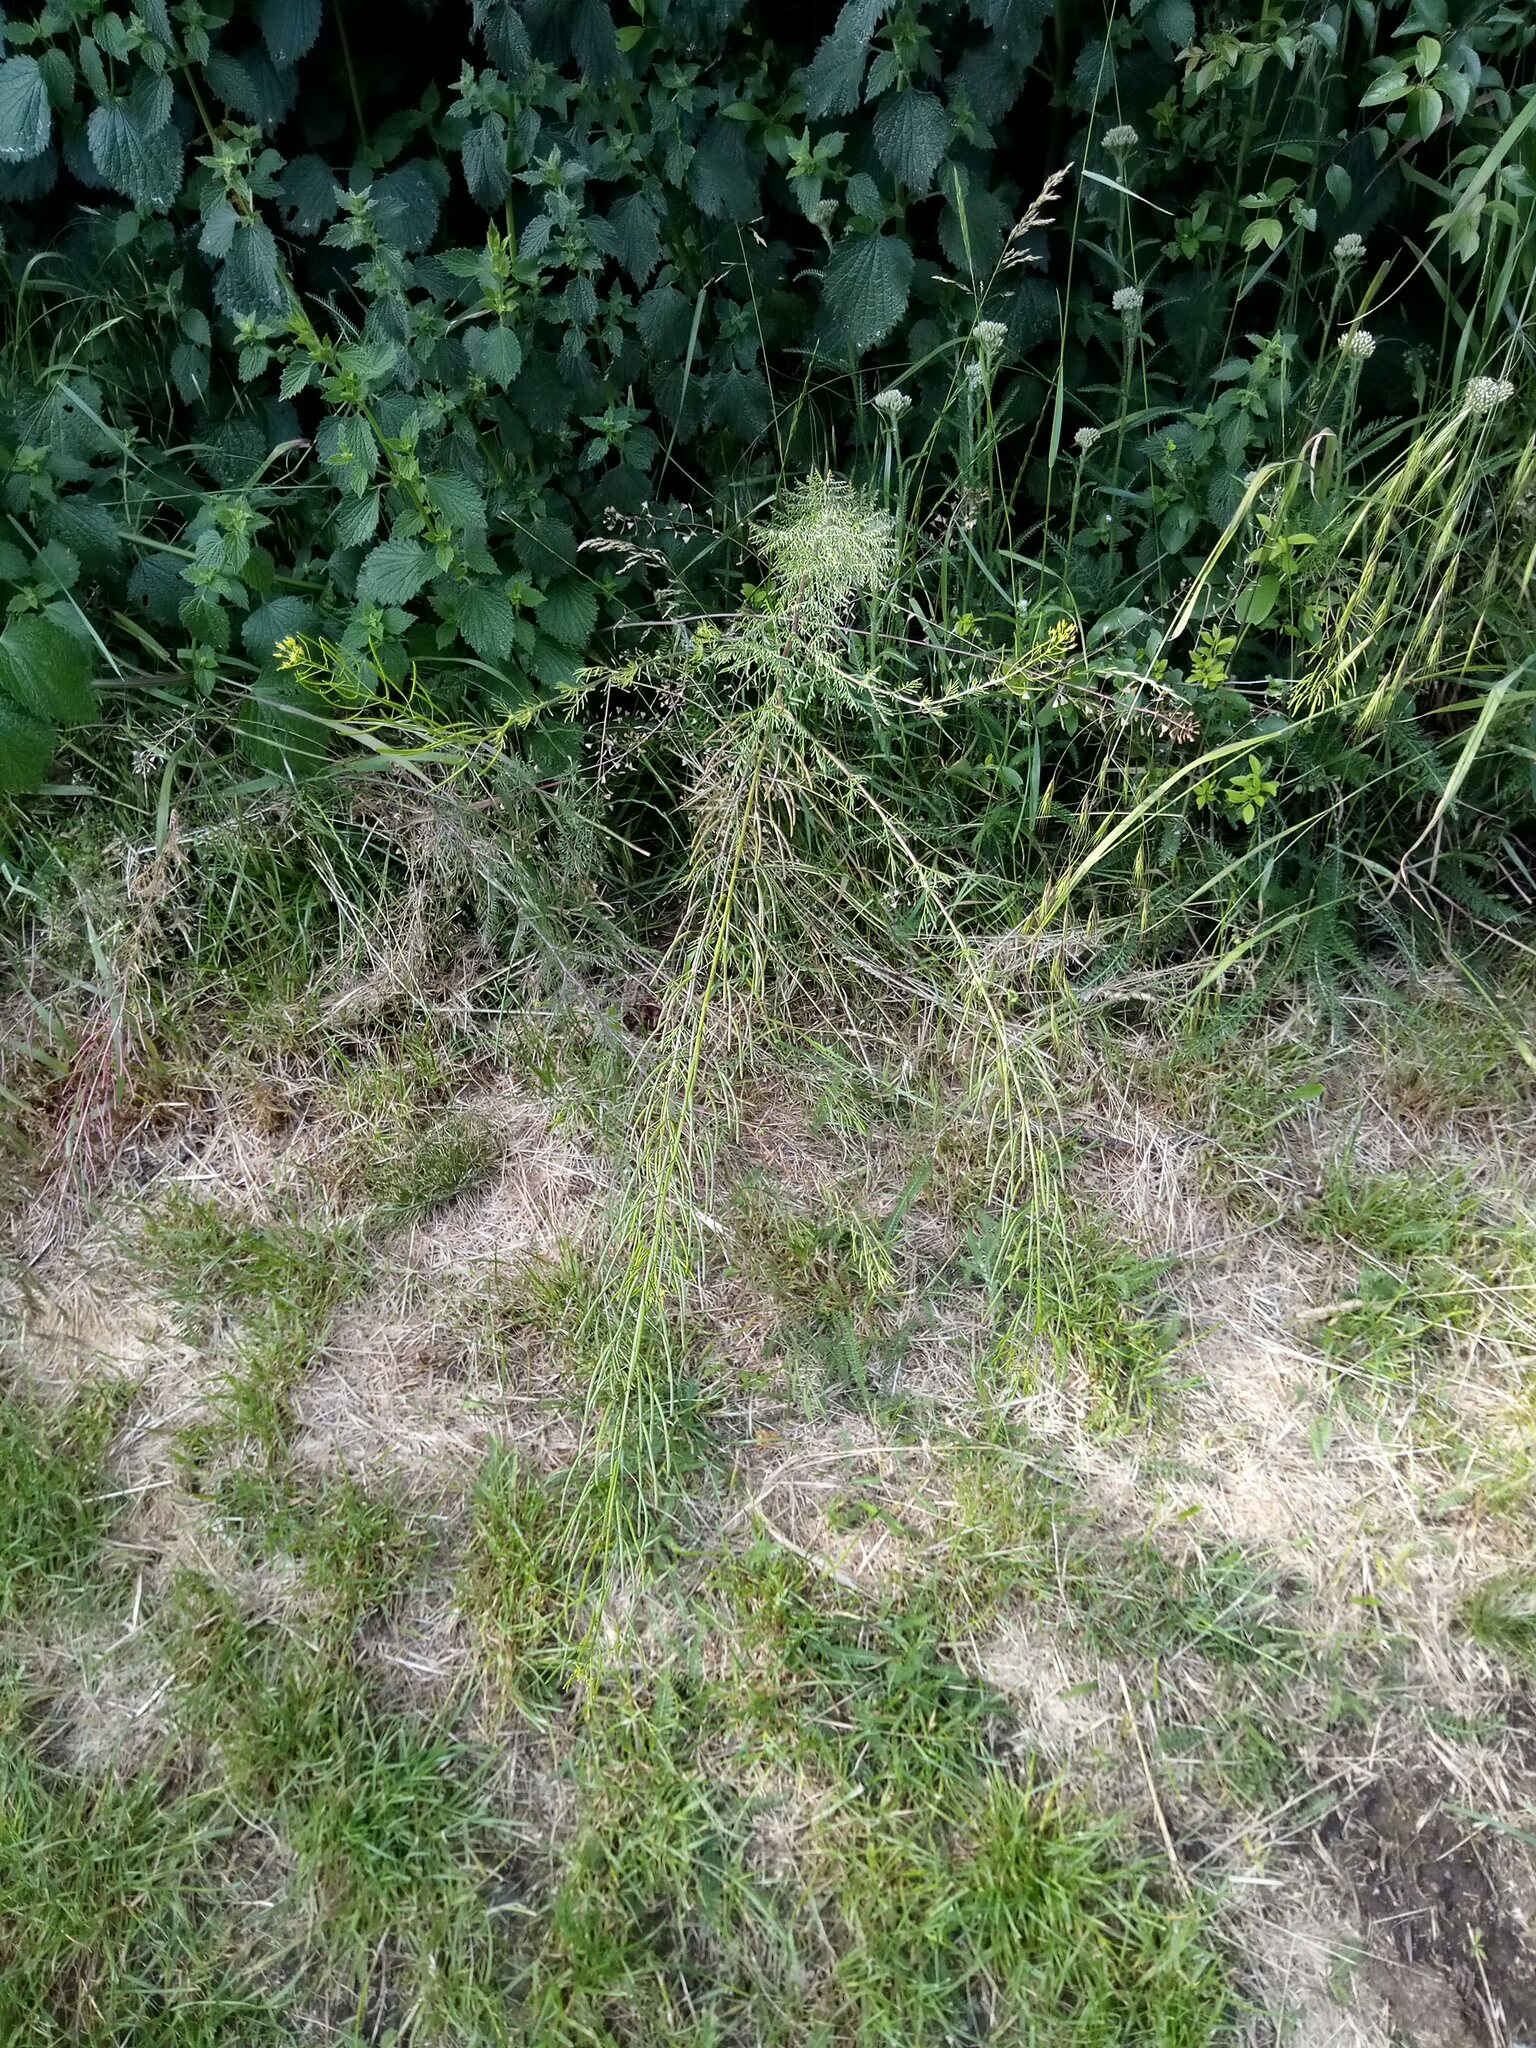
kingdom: Plantae
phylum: Tracheophyta
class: Magnoliopsida
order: Brassicales
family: Brassicaceae
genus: Descurainia
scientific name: Descurainia sophia
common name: Flixweed
